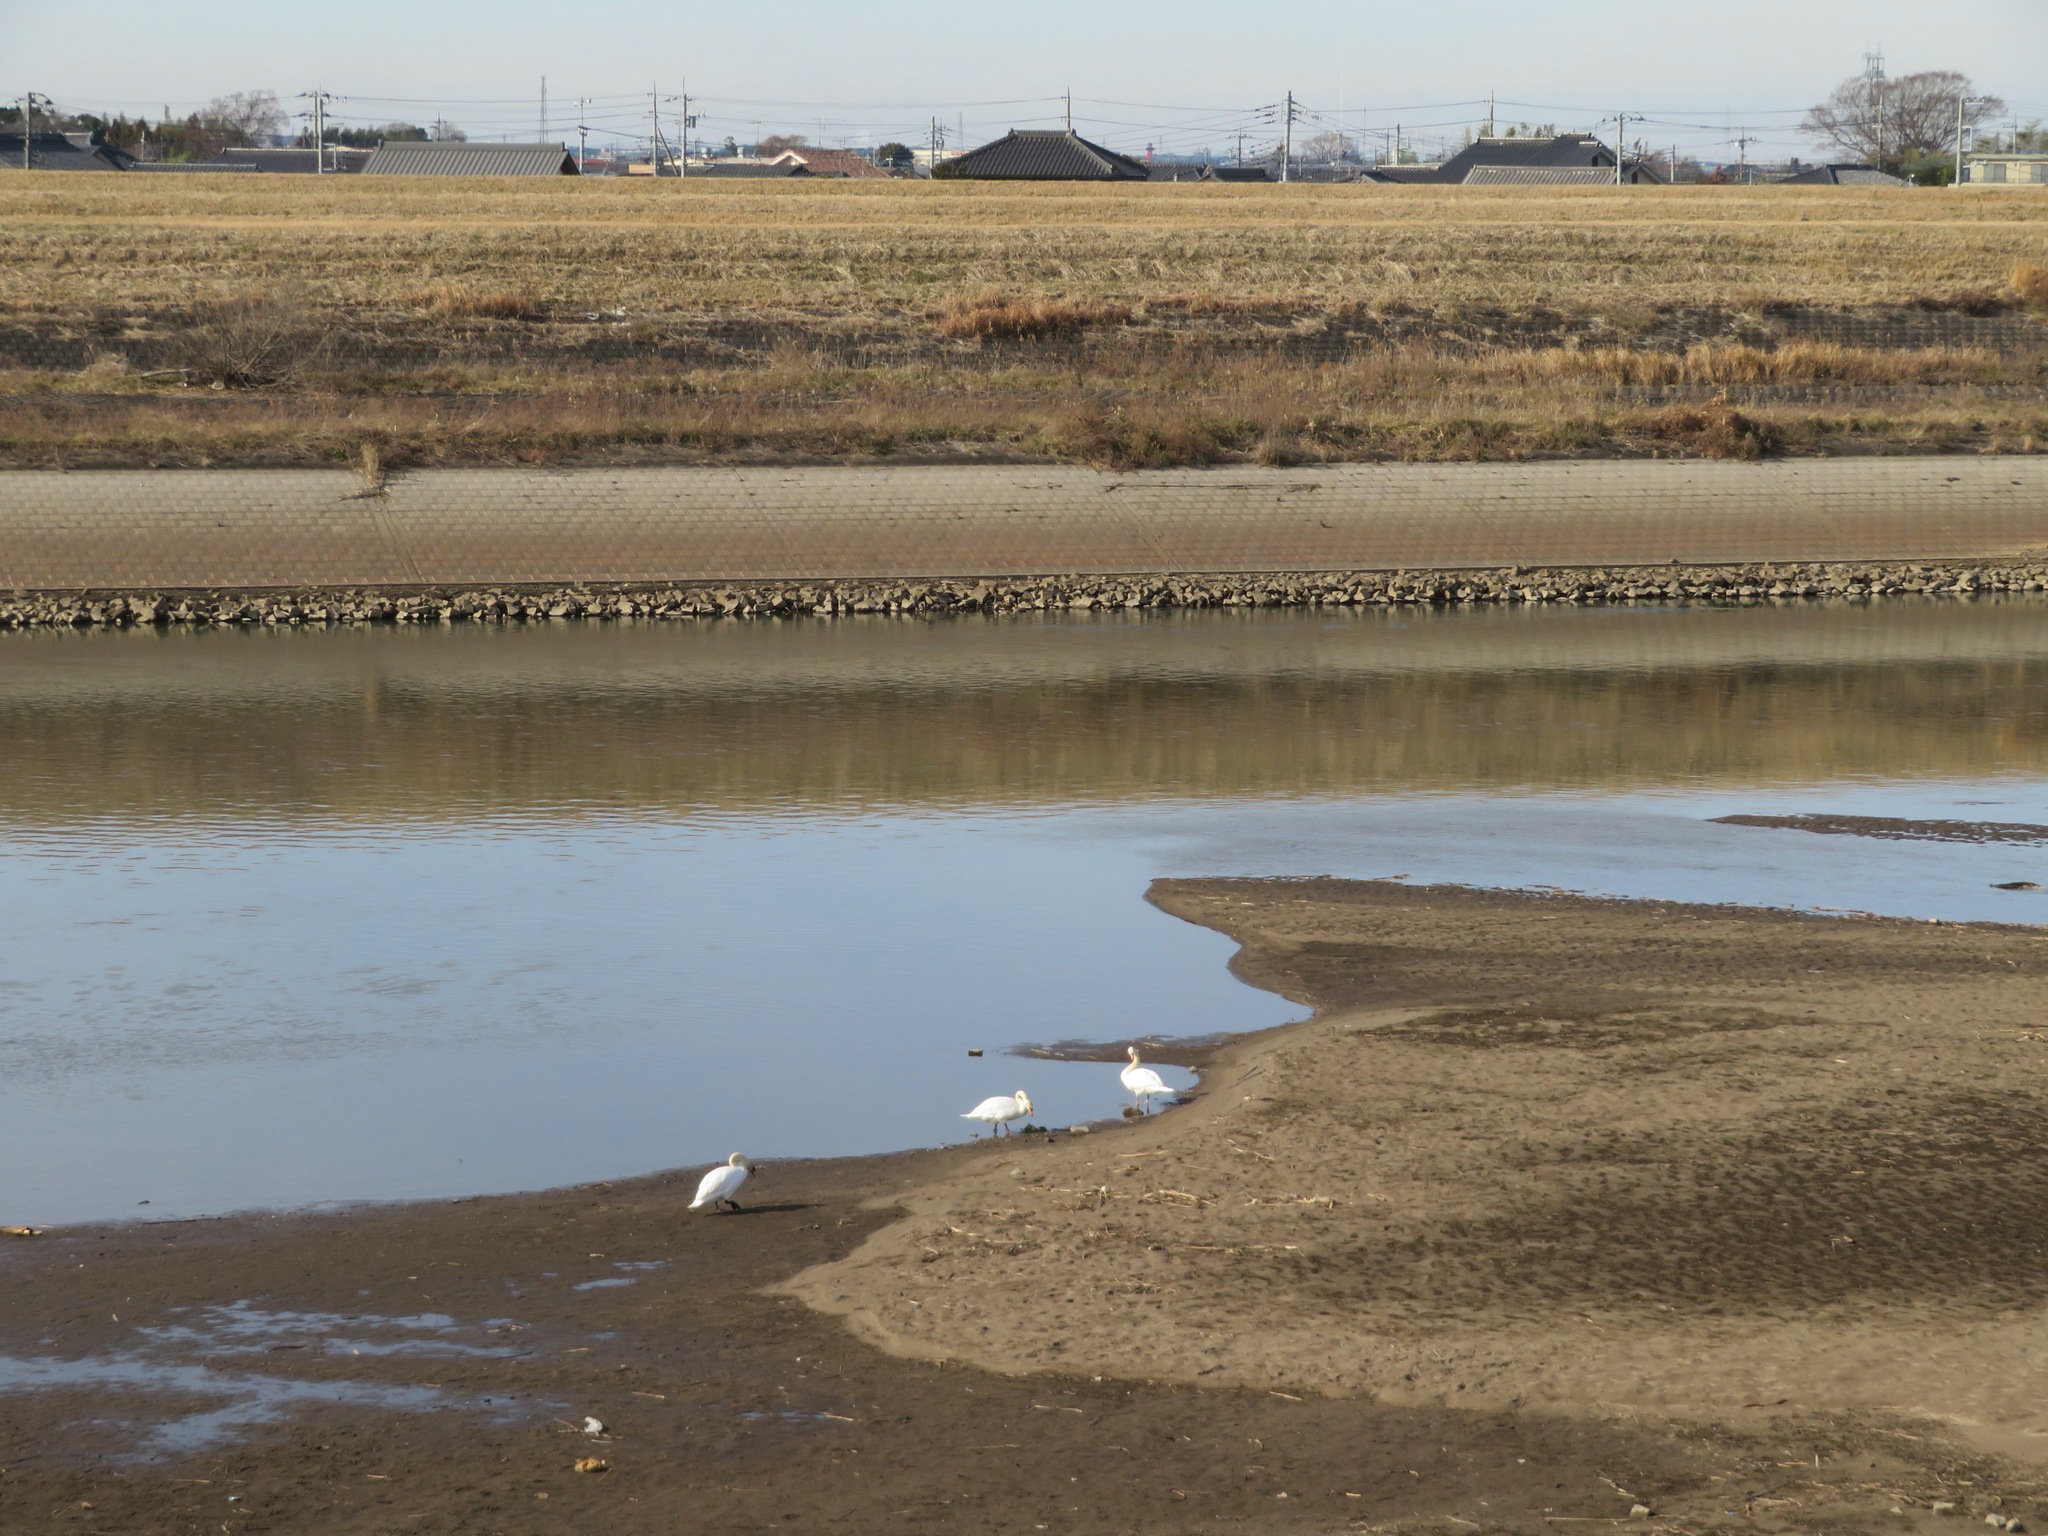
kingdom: Animalia
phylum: Chordata
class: Aves
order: Anseriformes
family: Anatidae
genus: Cygnus
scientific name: Cygnus olor
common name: Mute swan
